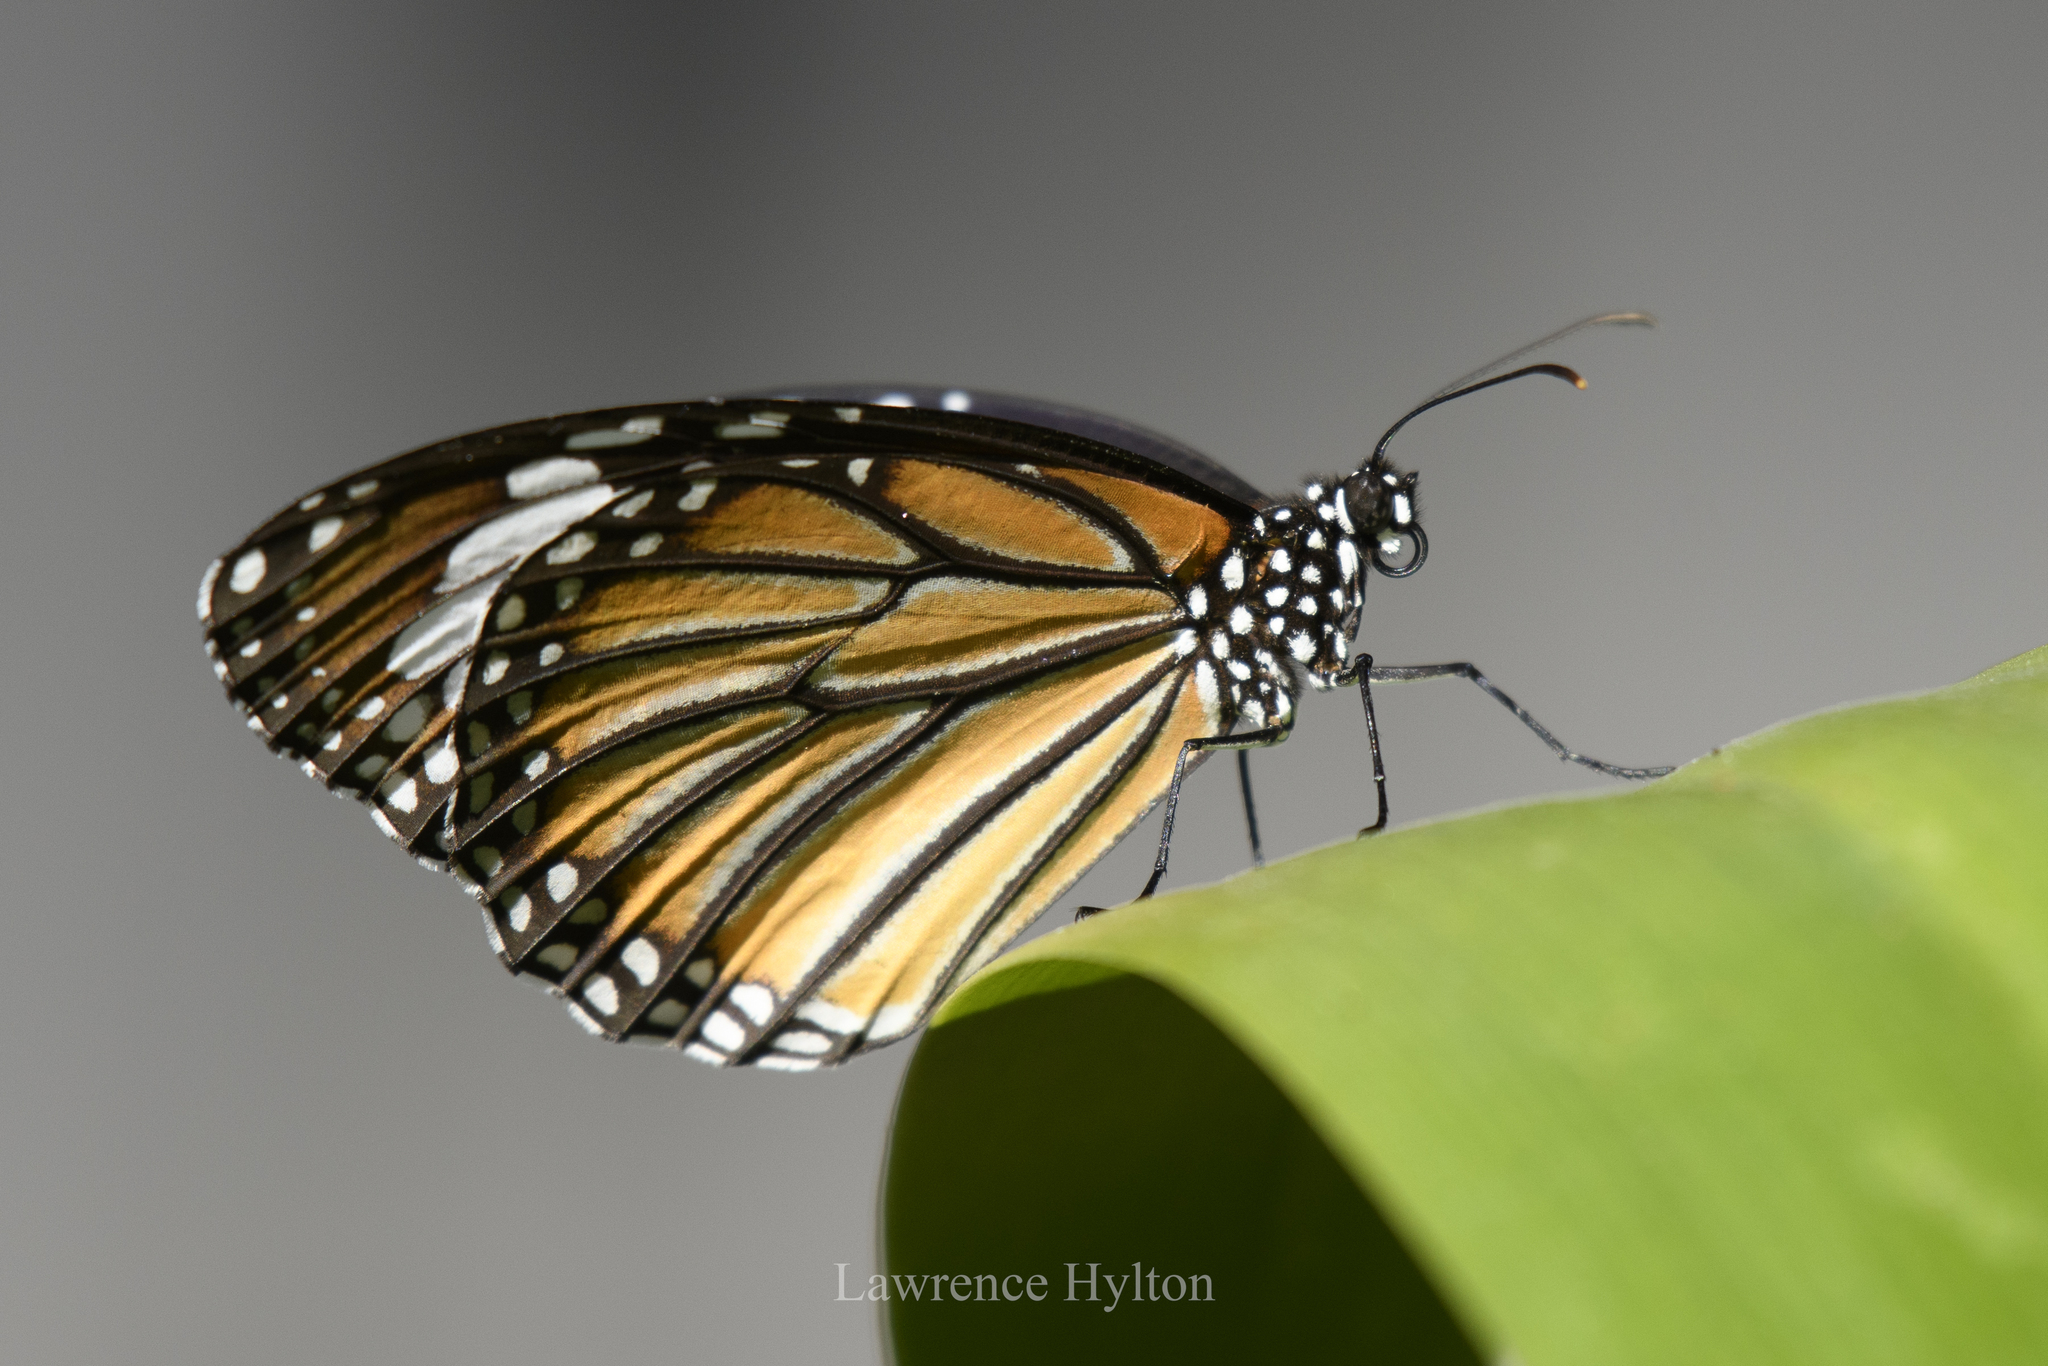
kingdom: Animalia
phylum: Arthropoda
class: Insecta
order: Lepidoptera
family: Nymphalidae
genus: Danaus
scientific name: Danaus genutia
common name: Common tiger butterfly
